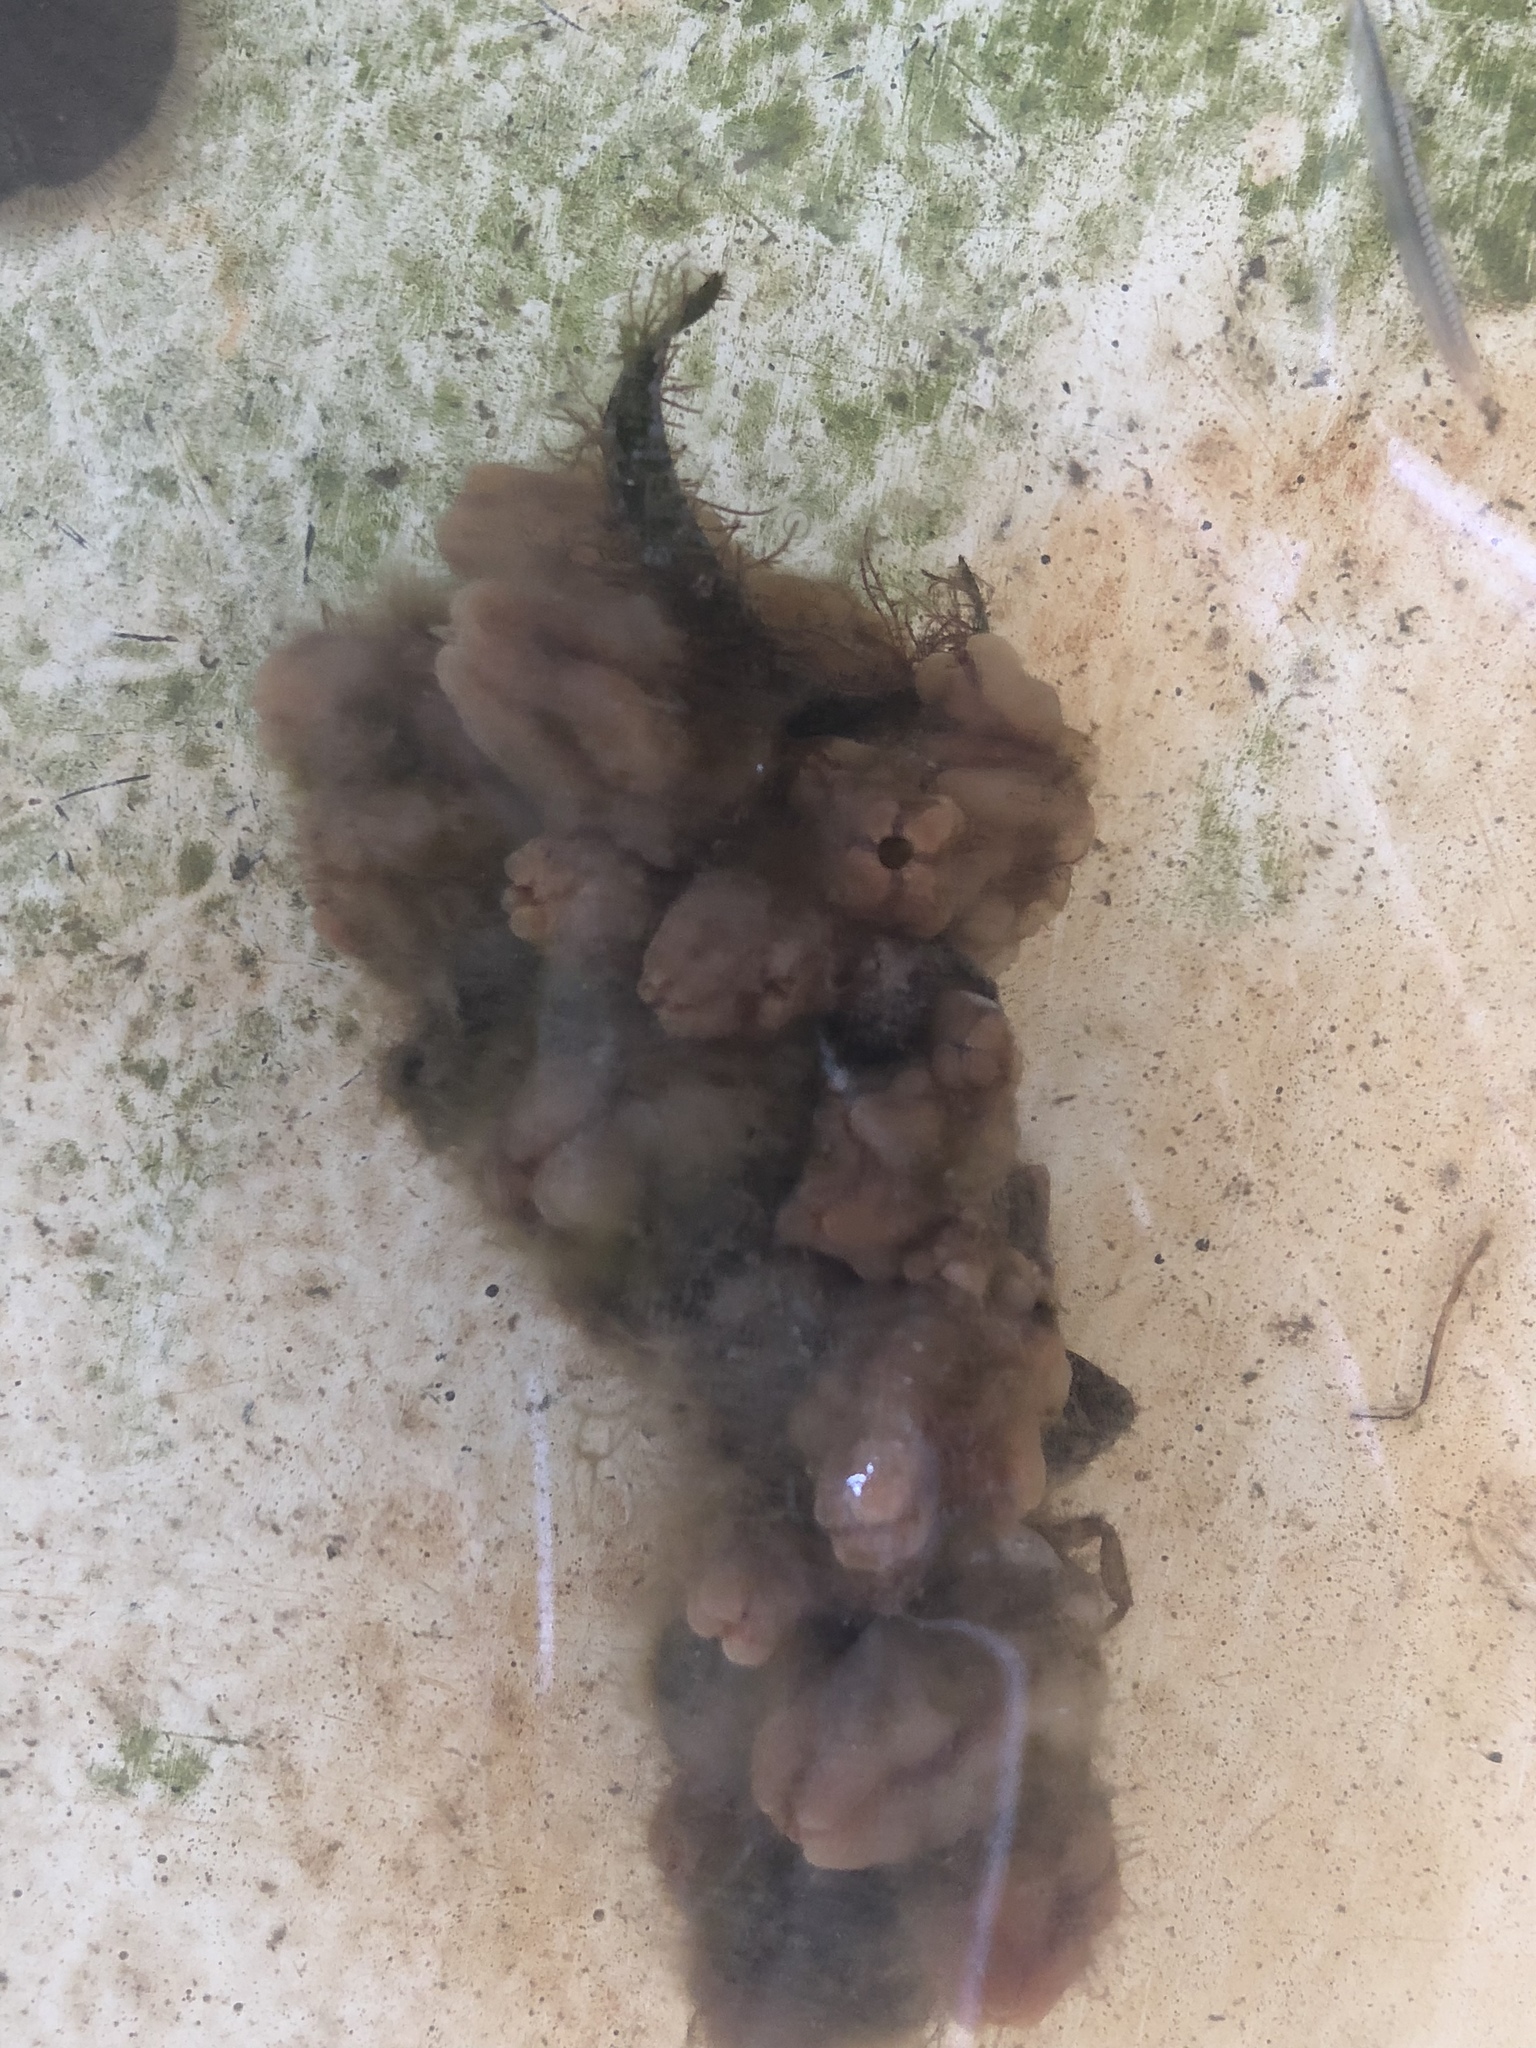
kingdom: Animalia
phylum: Chordata
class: Ascidiacea
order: Stolidobranchia
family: Styelidae
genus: Styela
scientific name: Styela plicata
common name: Pleated tunicate
